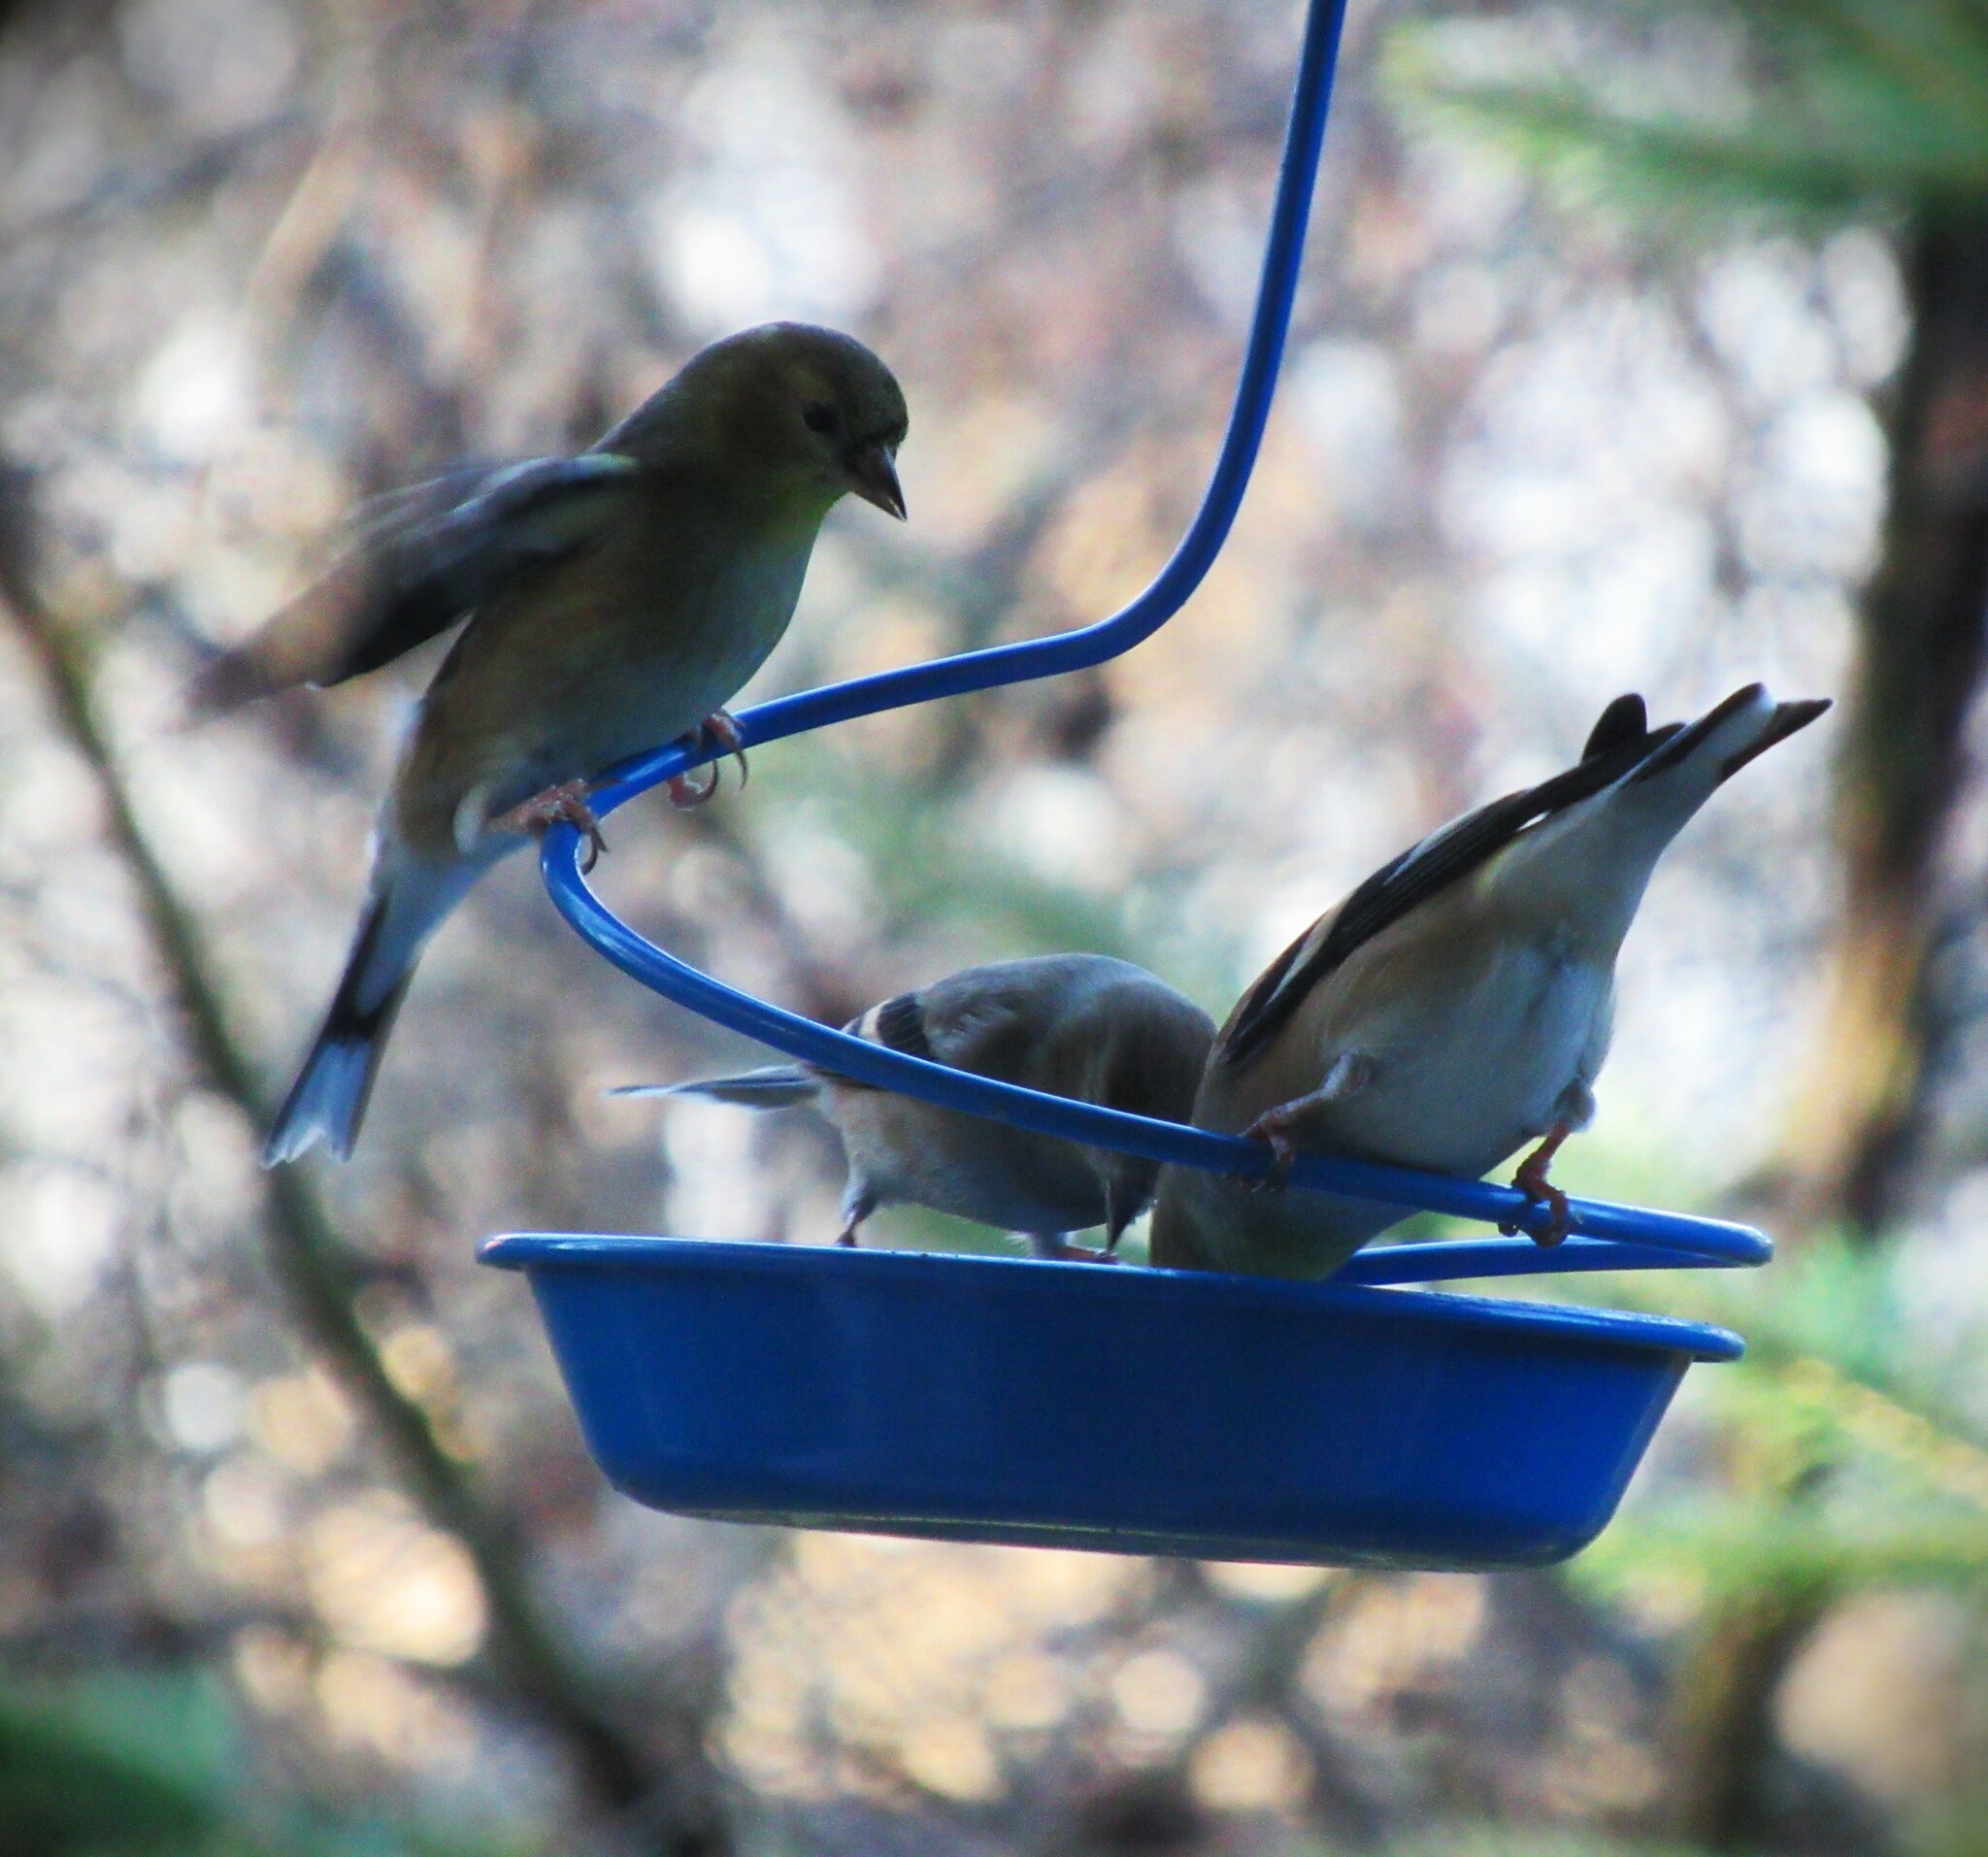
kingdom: Animalia
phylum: Chordata
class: Aves
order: Passeriformes
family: Fringillidae
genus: Spinus
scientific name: Spinus tristis
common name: American goldfinch
